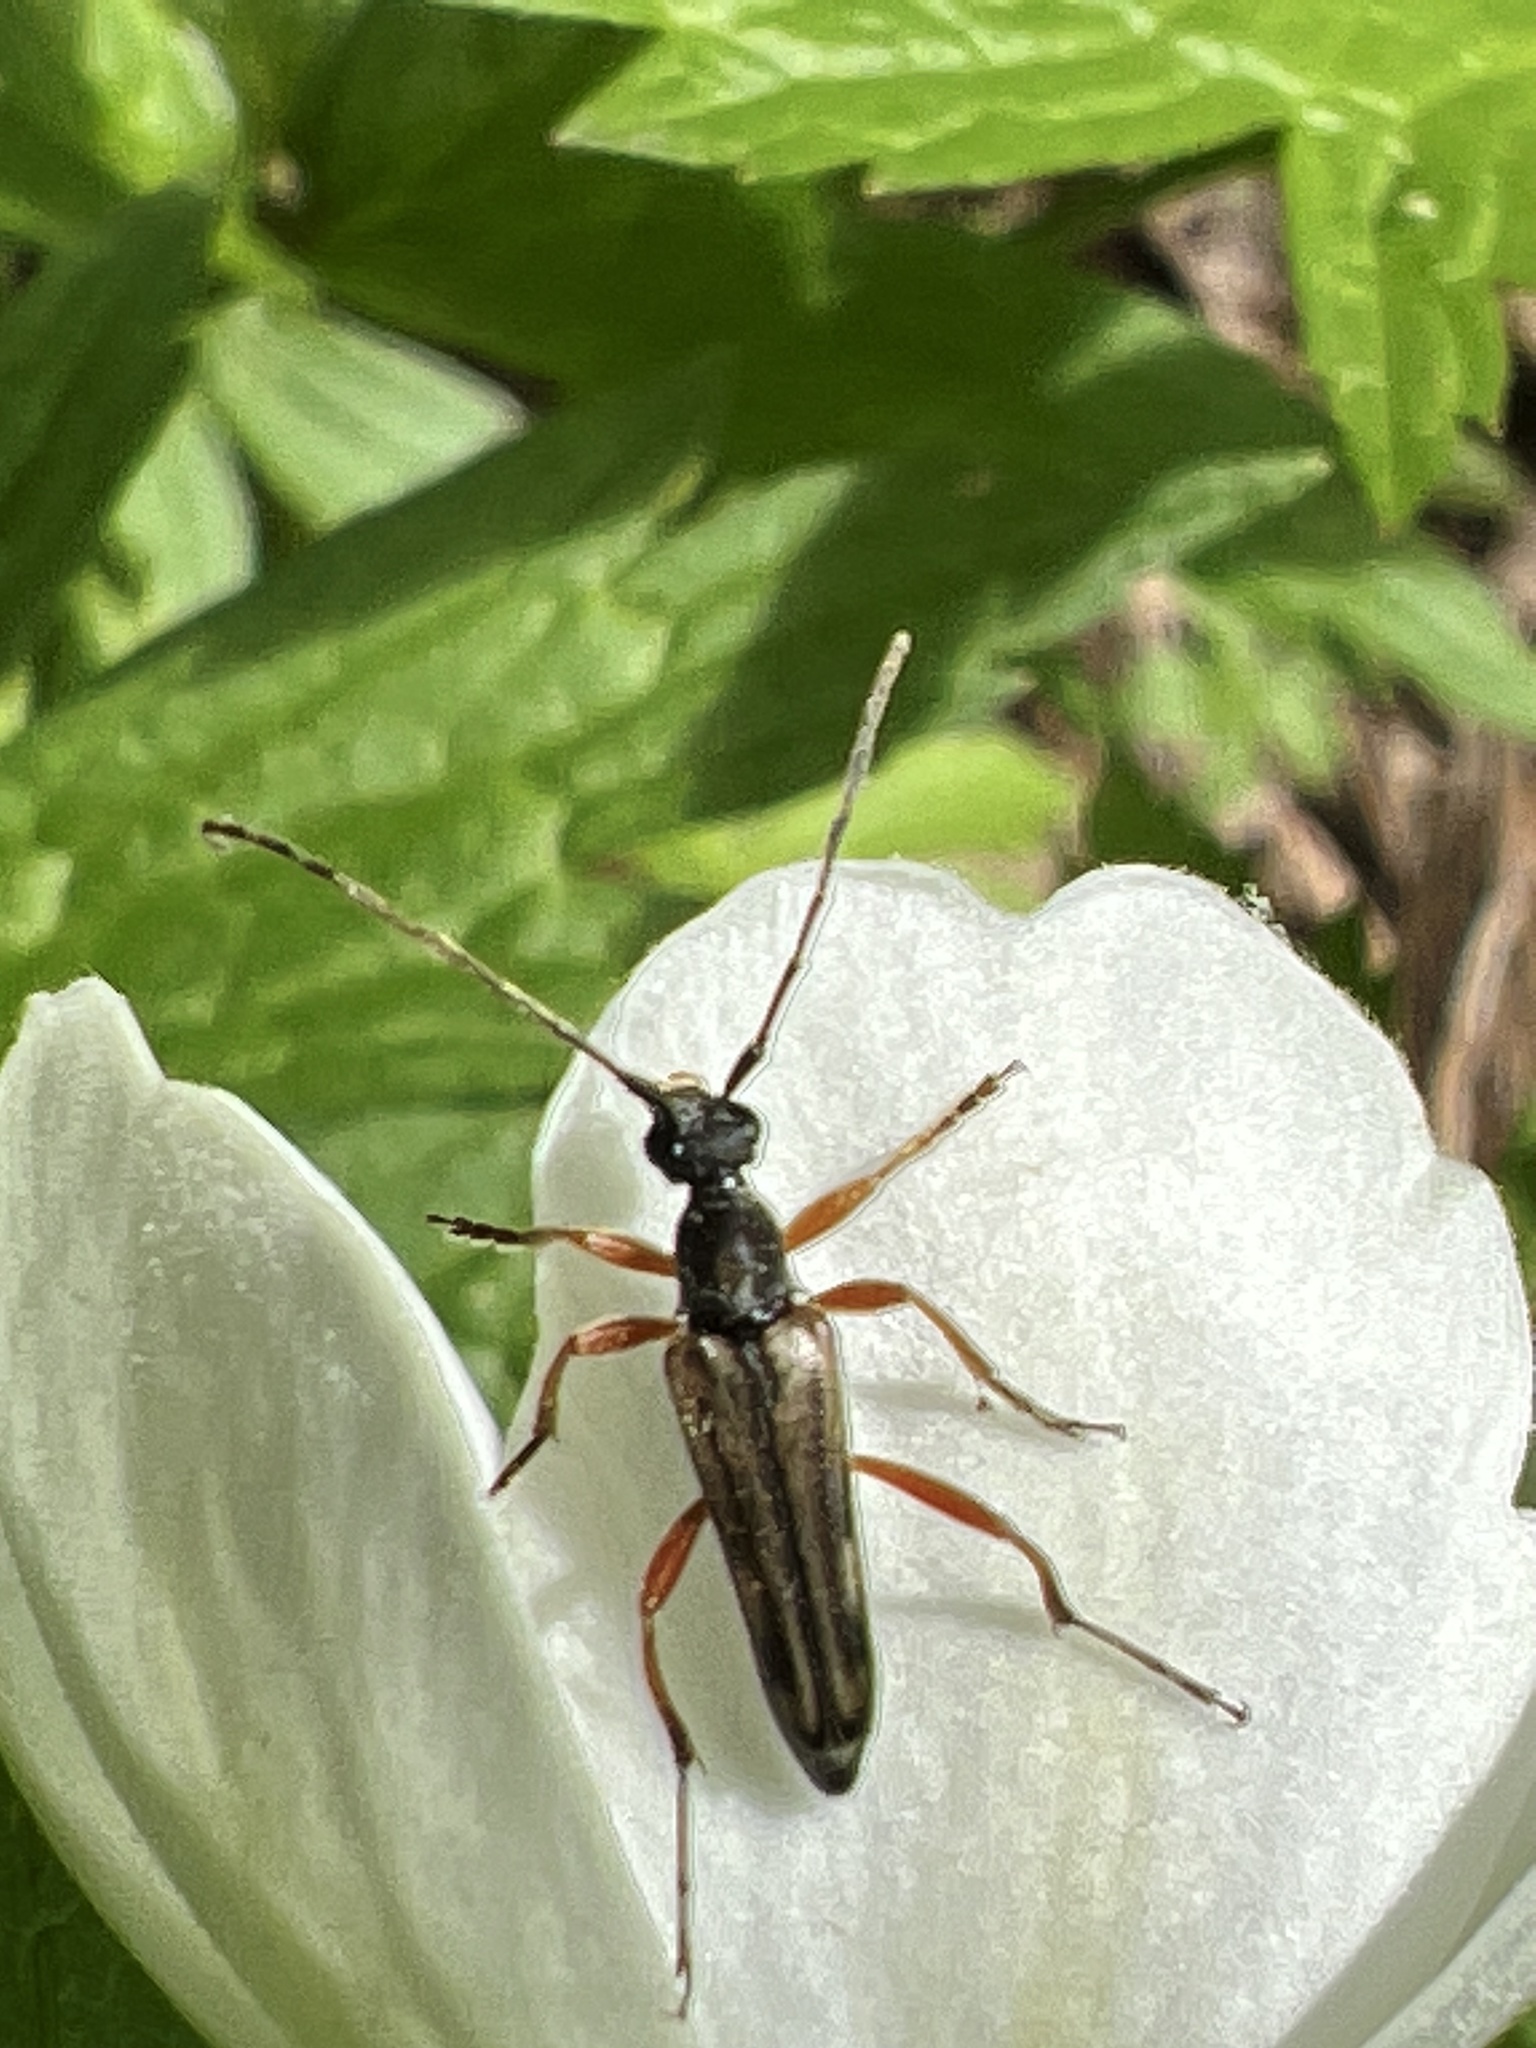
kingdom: Animalia
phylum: Arthropoda
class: Insecta
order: Coleoptera
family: Cerambycidae
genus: Analeptura
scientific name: Analeptura lineola
